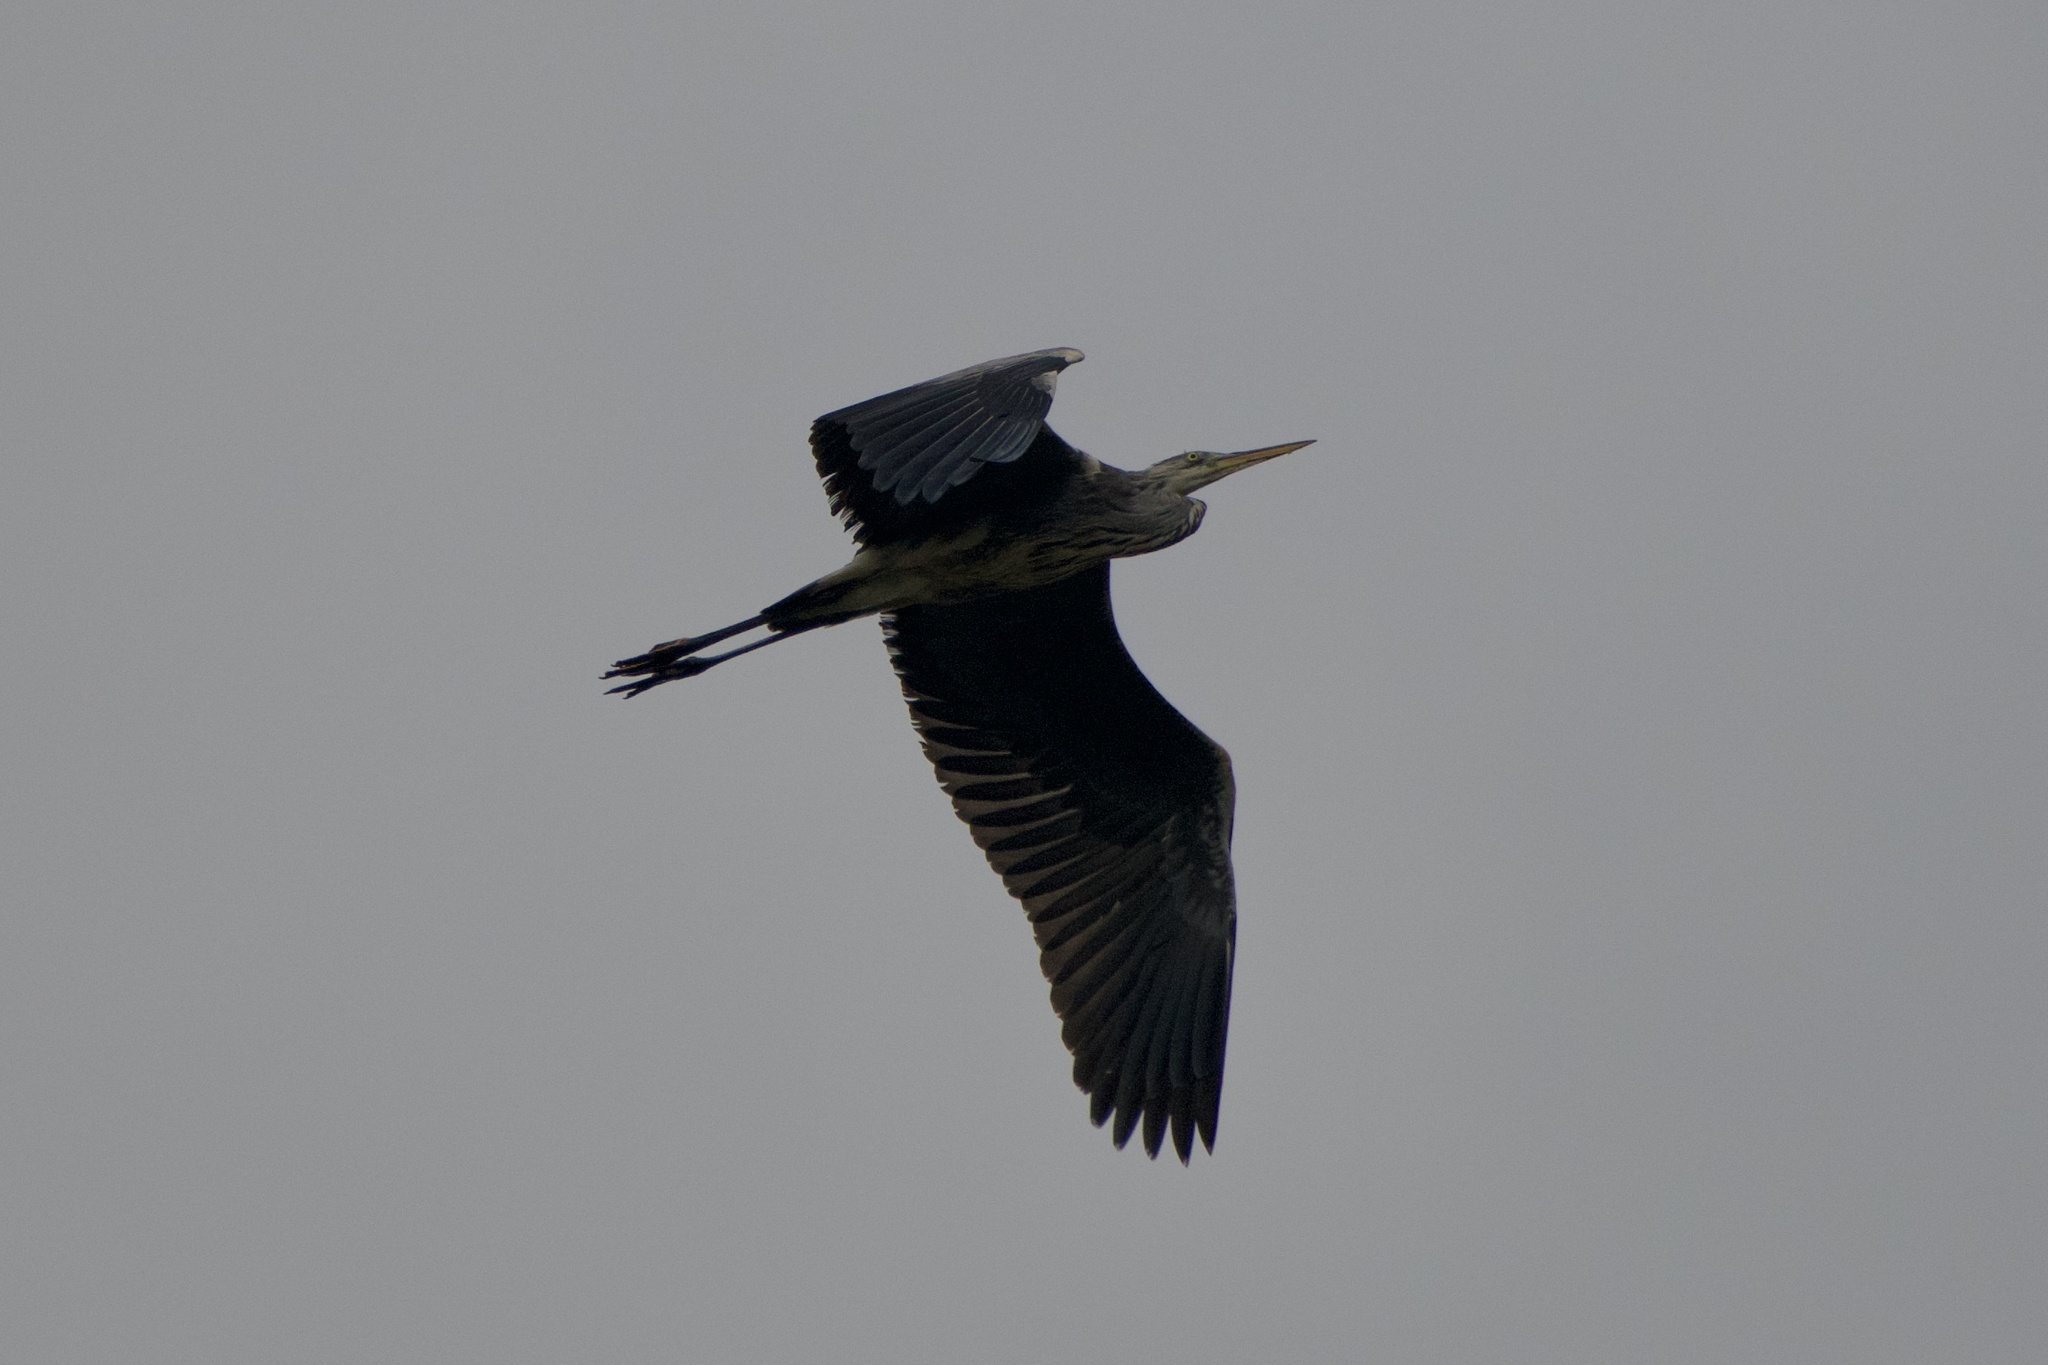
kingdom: Animalia
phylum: Chordata
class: Aves
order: Pelecaniformes
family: Ardeidae
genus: Ardea
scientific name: Ardea cinerea
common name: Grey heron
